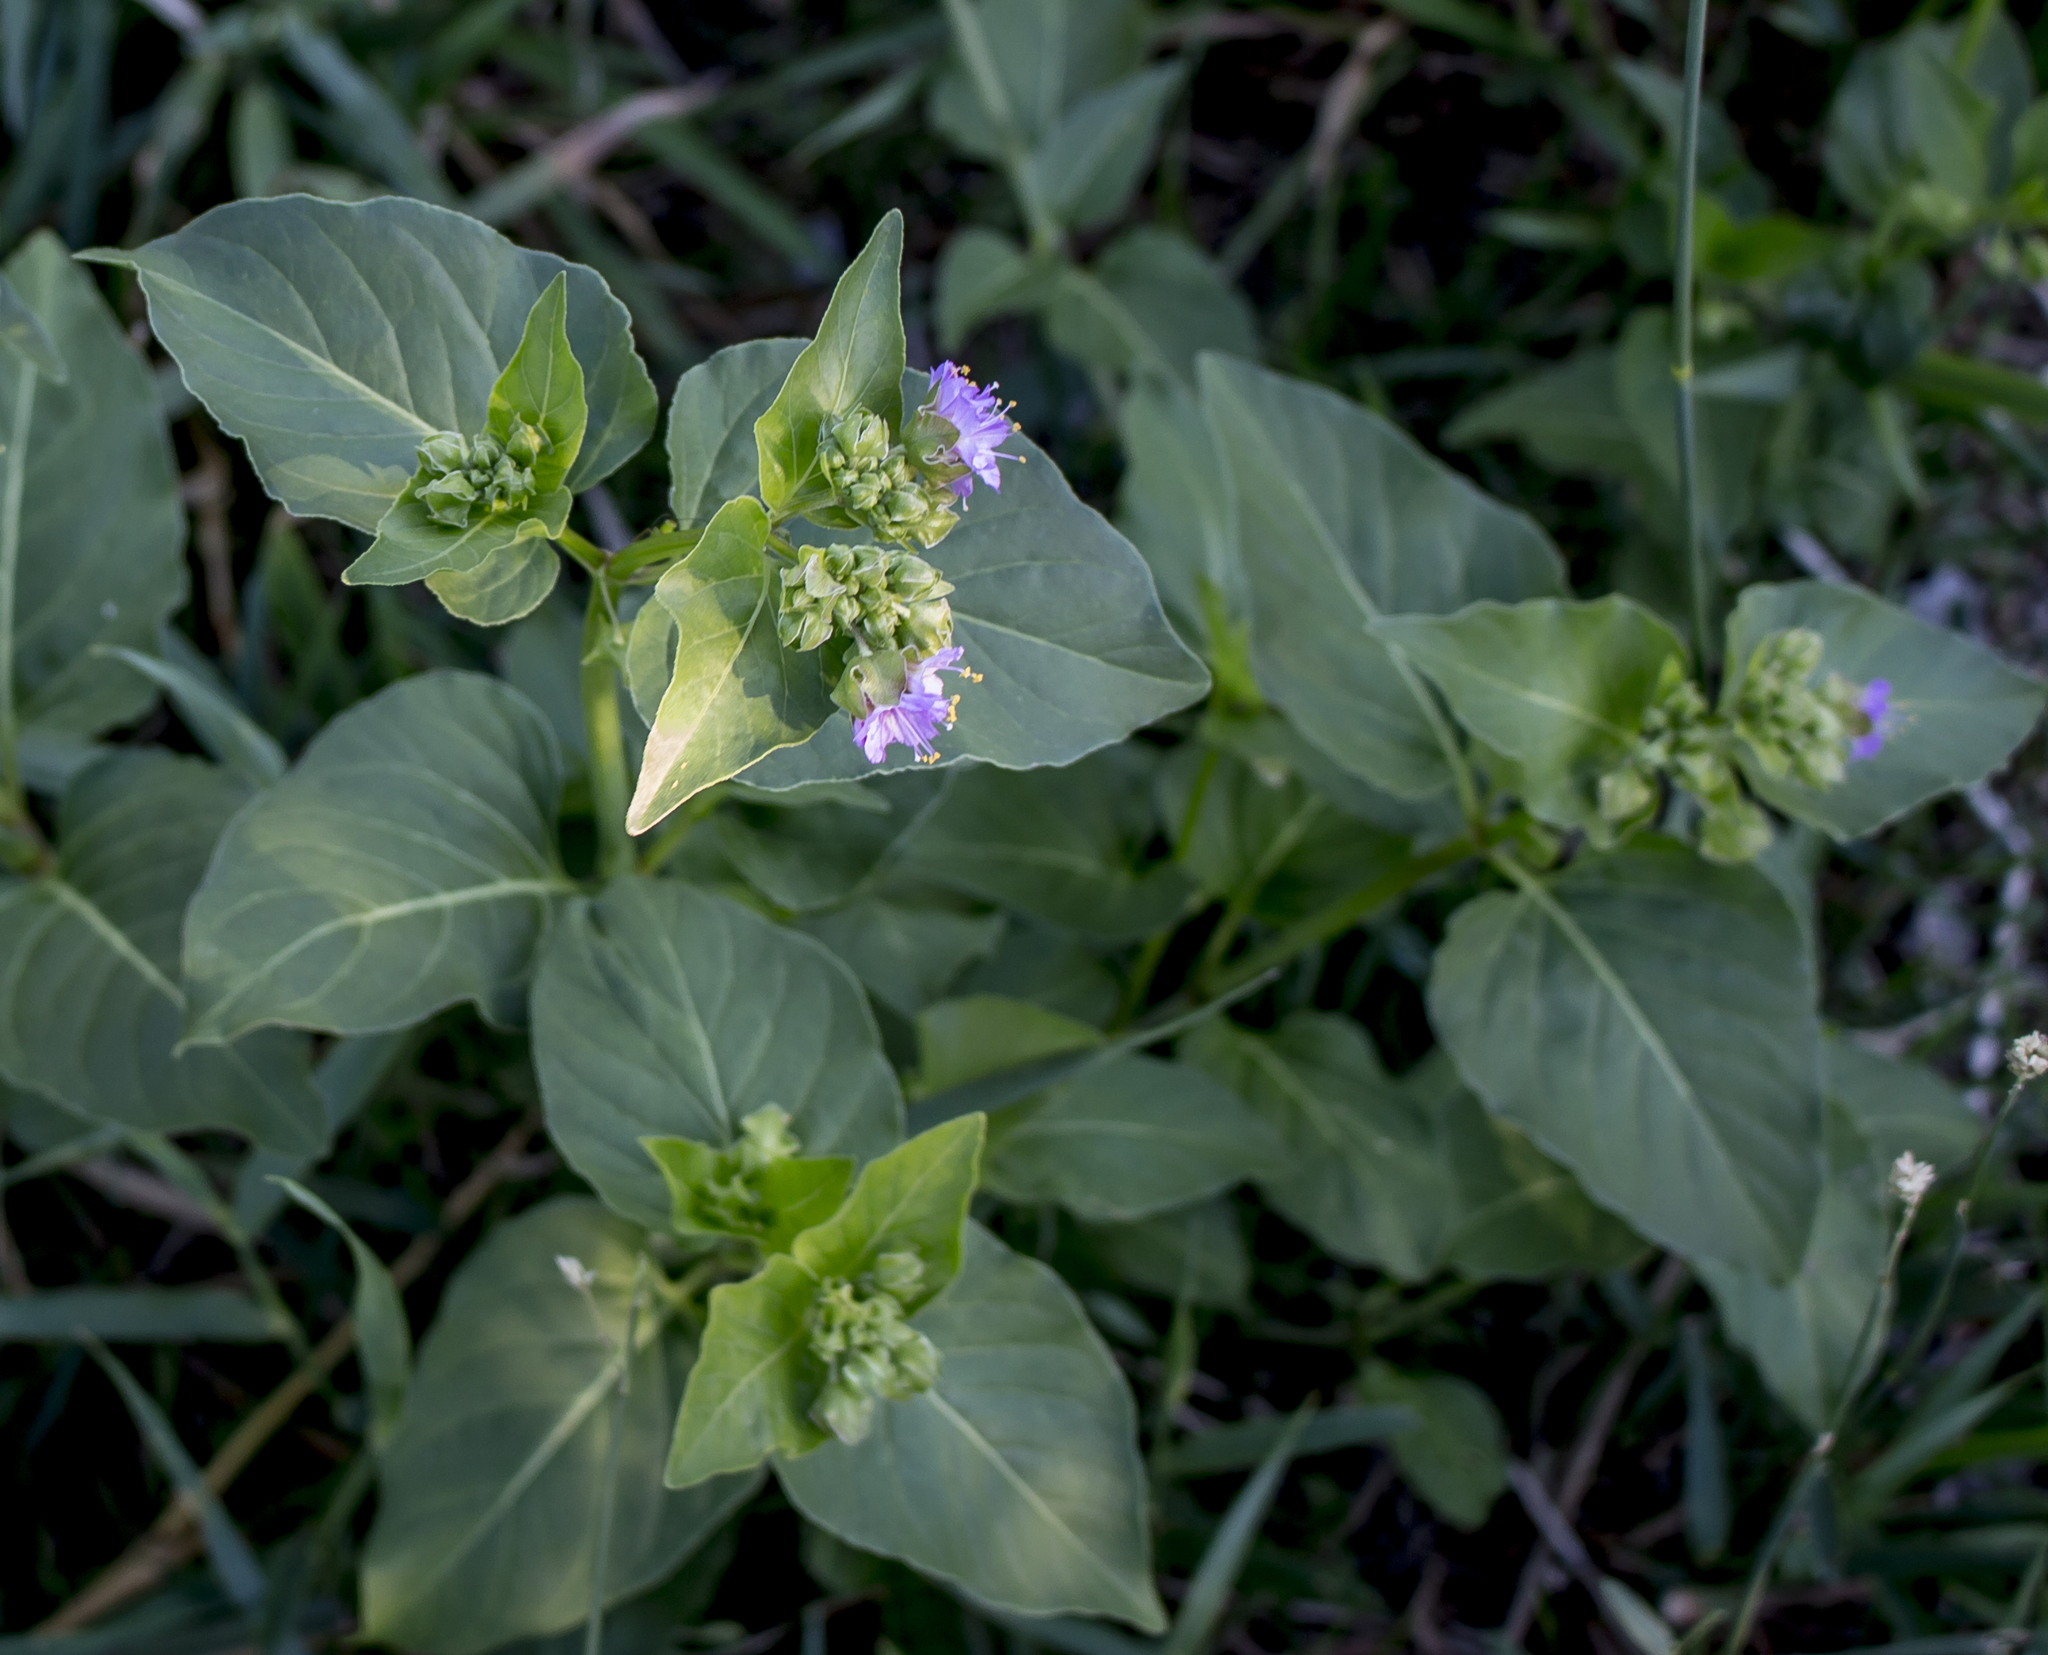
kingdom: Plantae
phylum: Tracheophyta
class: Magnoliopsida
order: Caryophyllales
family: Nyctaginaceae
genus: Mirabilis
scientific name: Mirabilis nyctaginea
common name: Umbrella wort
